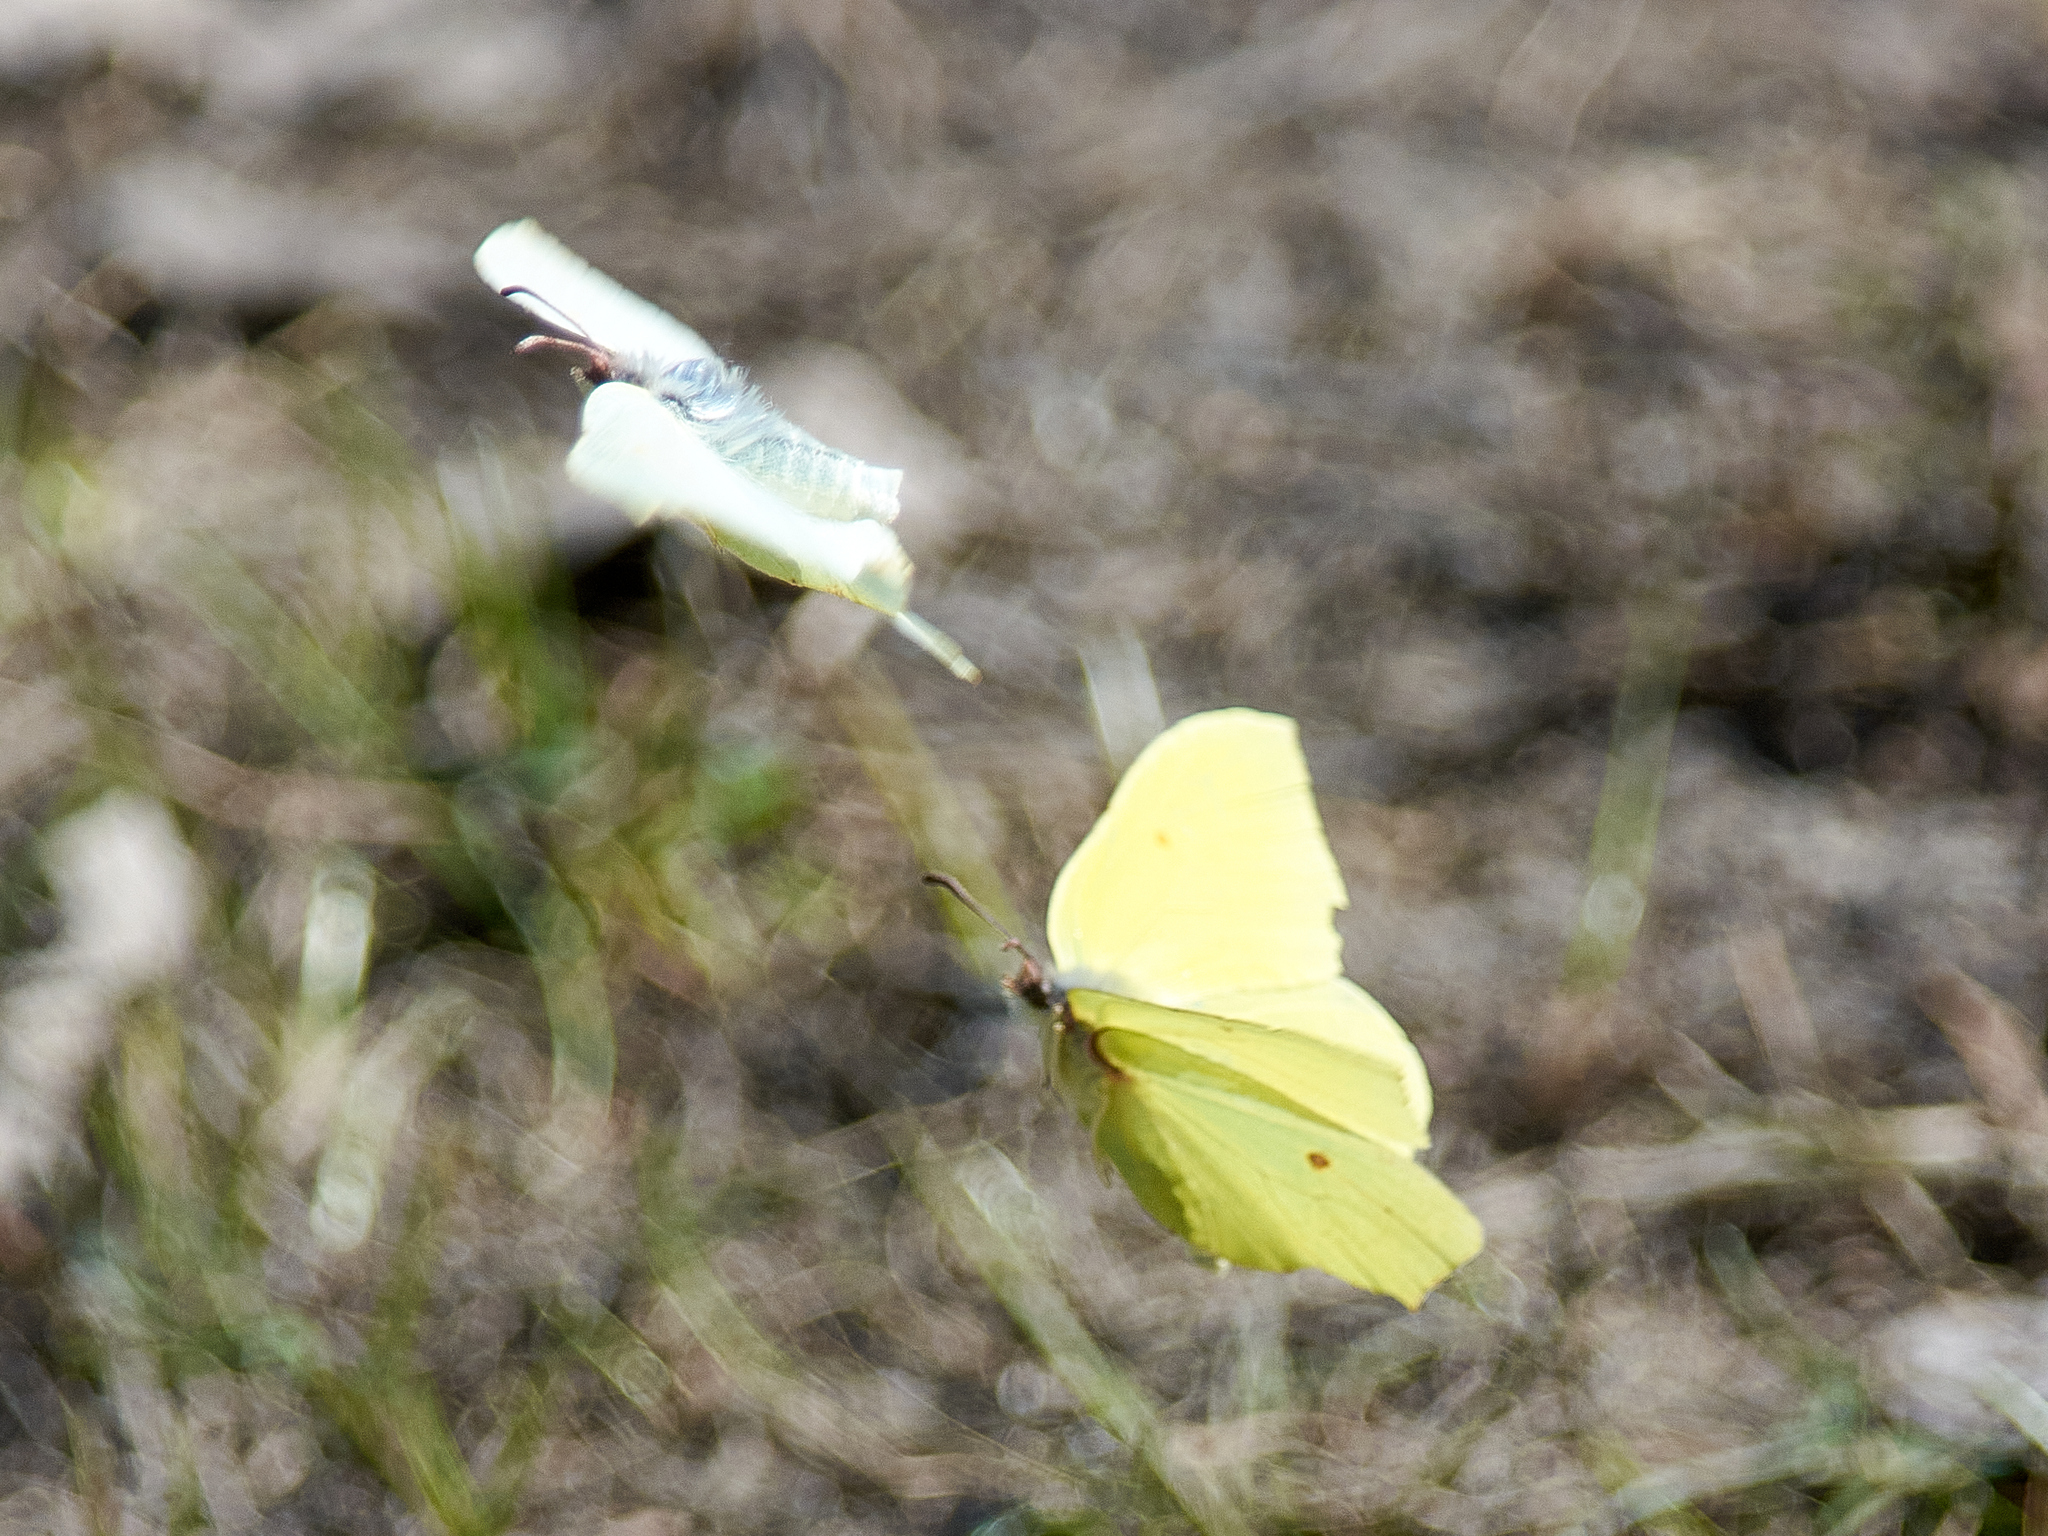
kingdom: Animalia
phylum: Arthropoda
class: Insecta
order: Lepidoptera
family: Pieridae
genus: Gonepteryx
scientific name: Gonepteryx rhamni
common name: Brimstone
